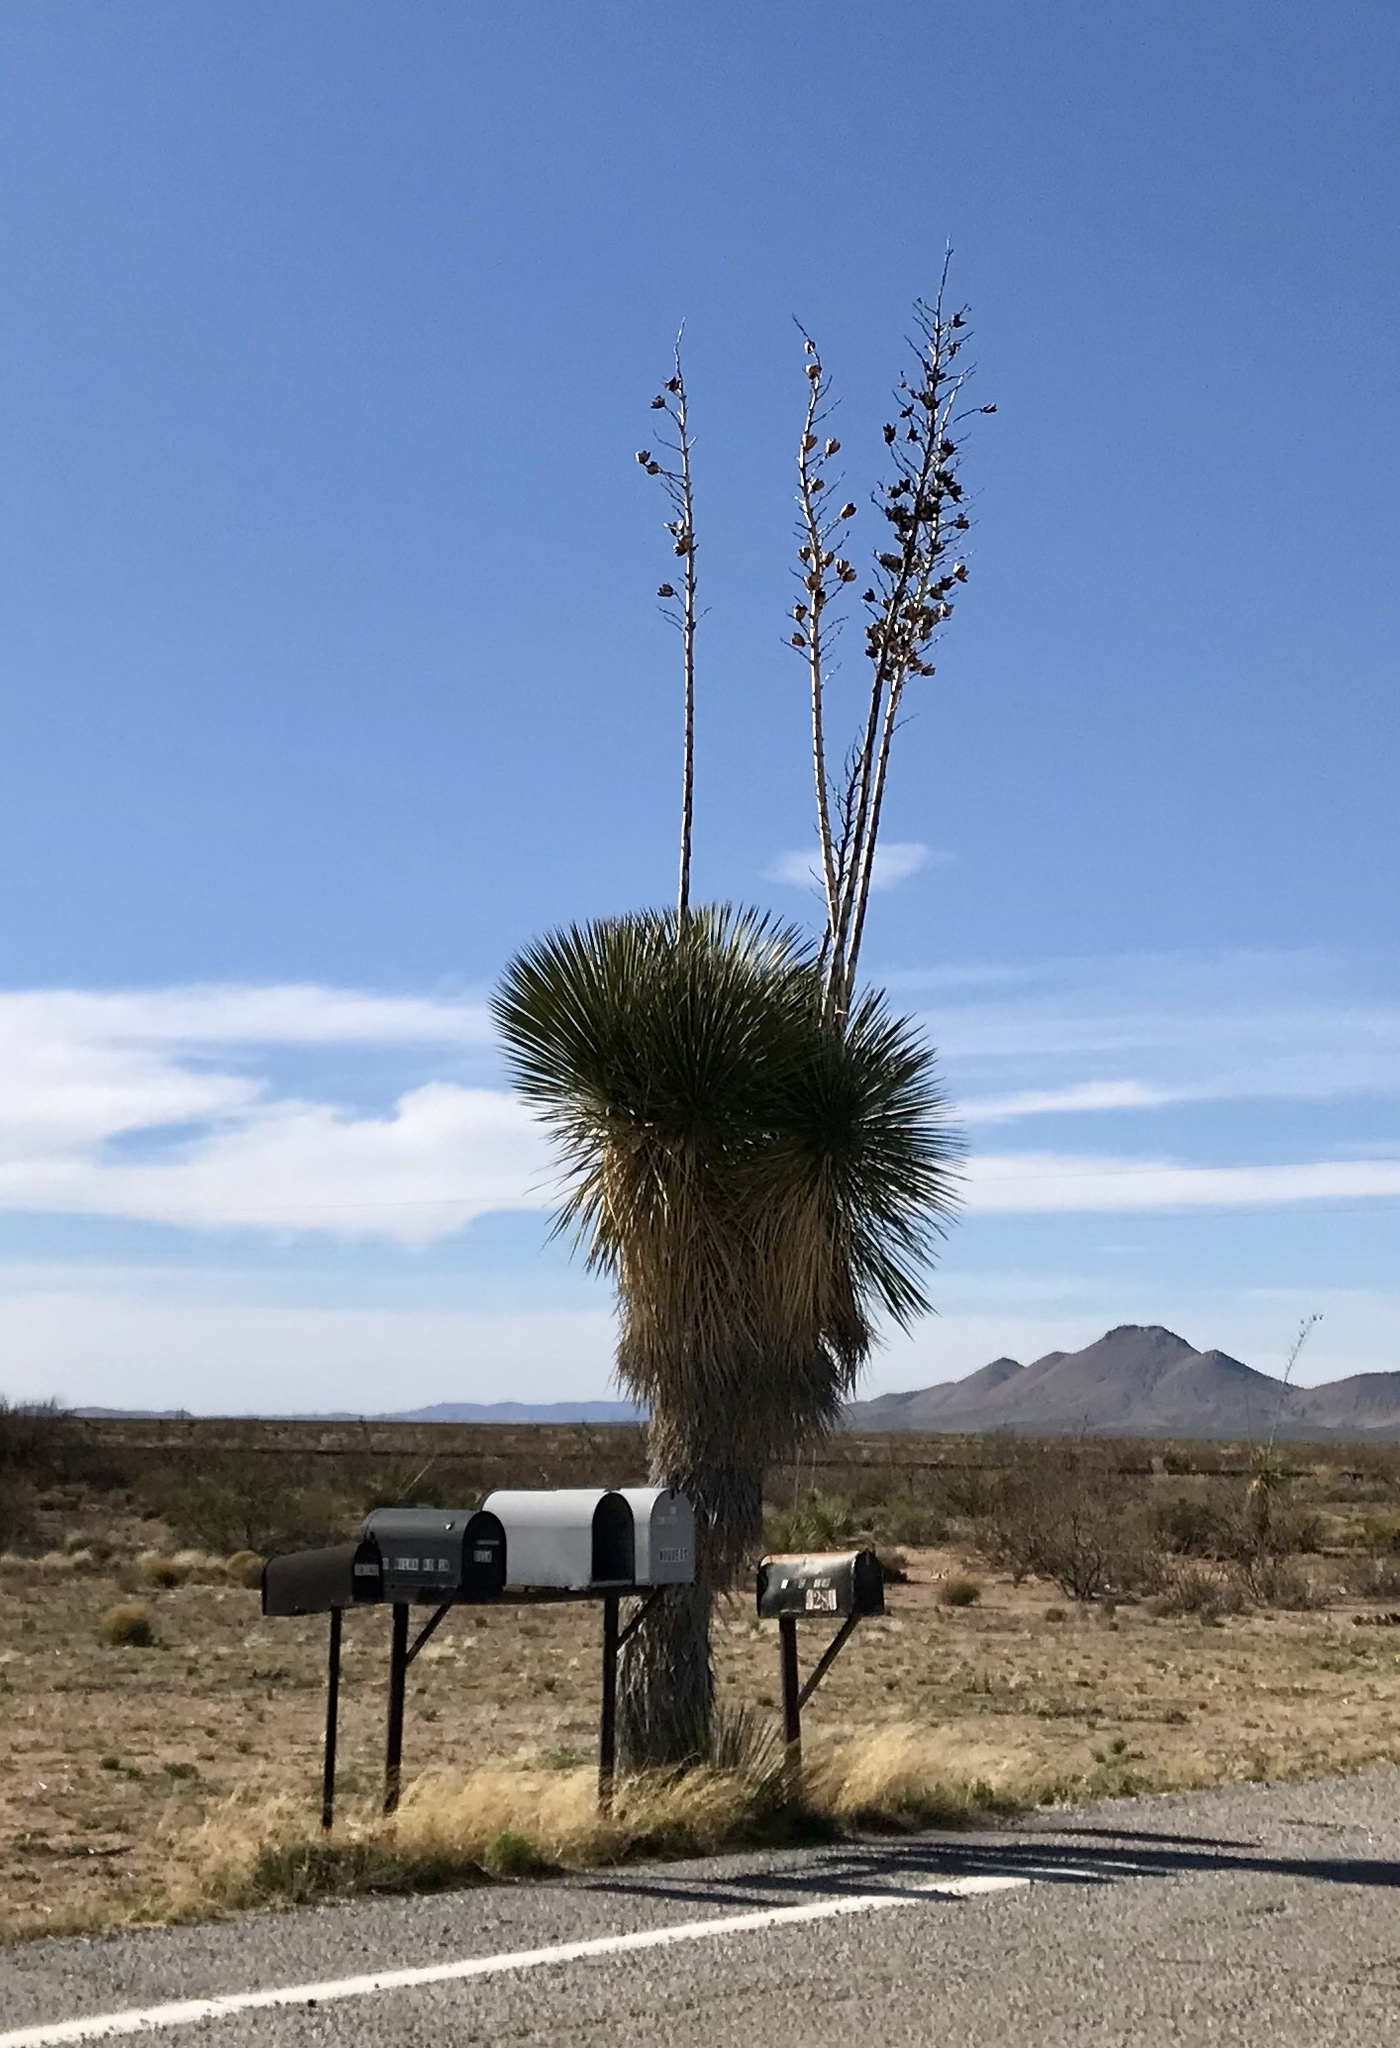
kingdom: Plantae
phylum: Tracheophyta
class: Liliopsida
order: Asparagales
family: Asparagaceae
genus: Yucca
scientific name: Yucca elata
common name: Palmella
